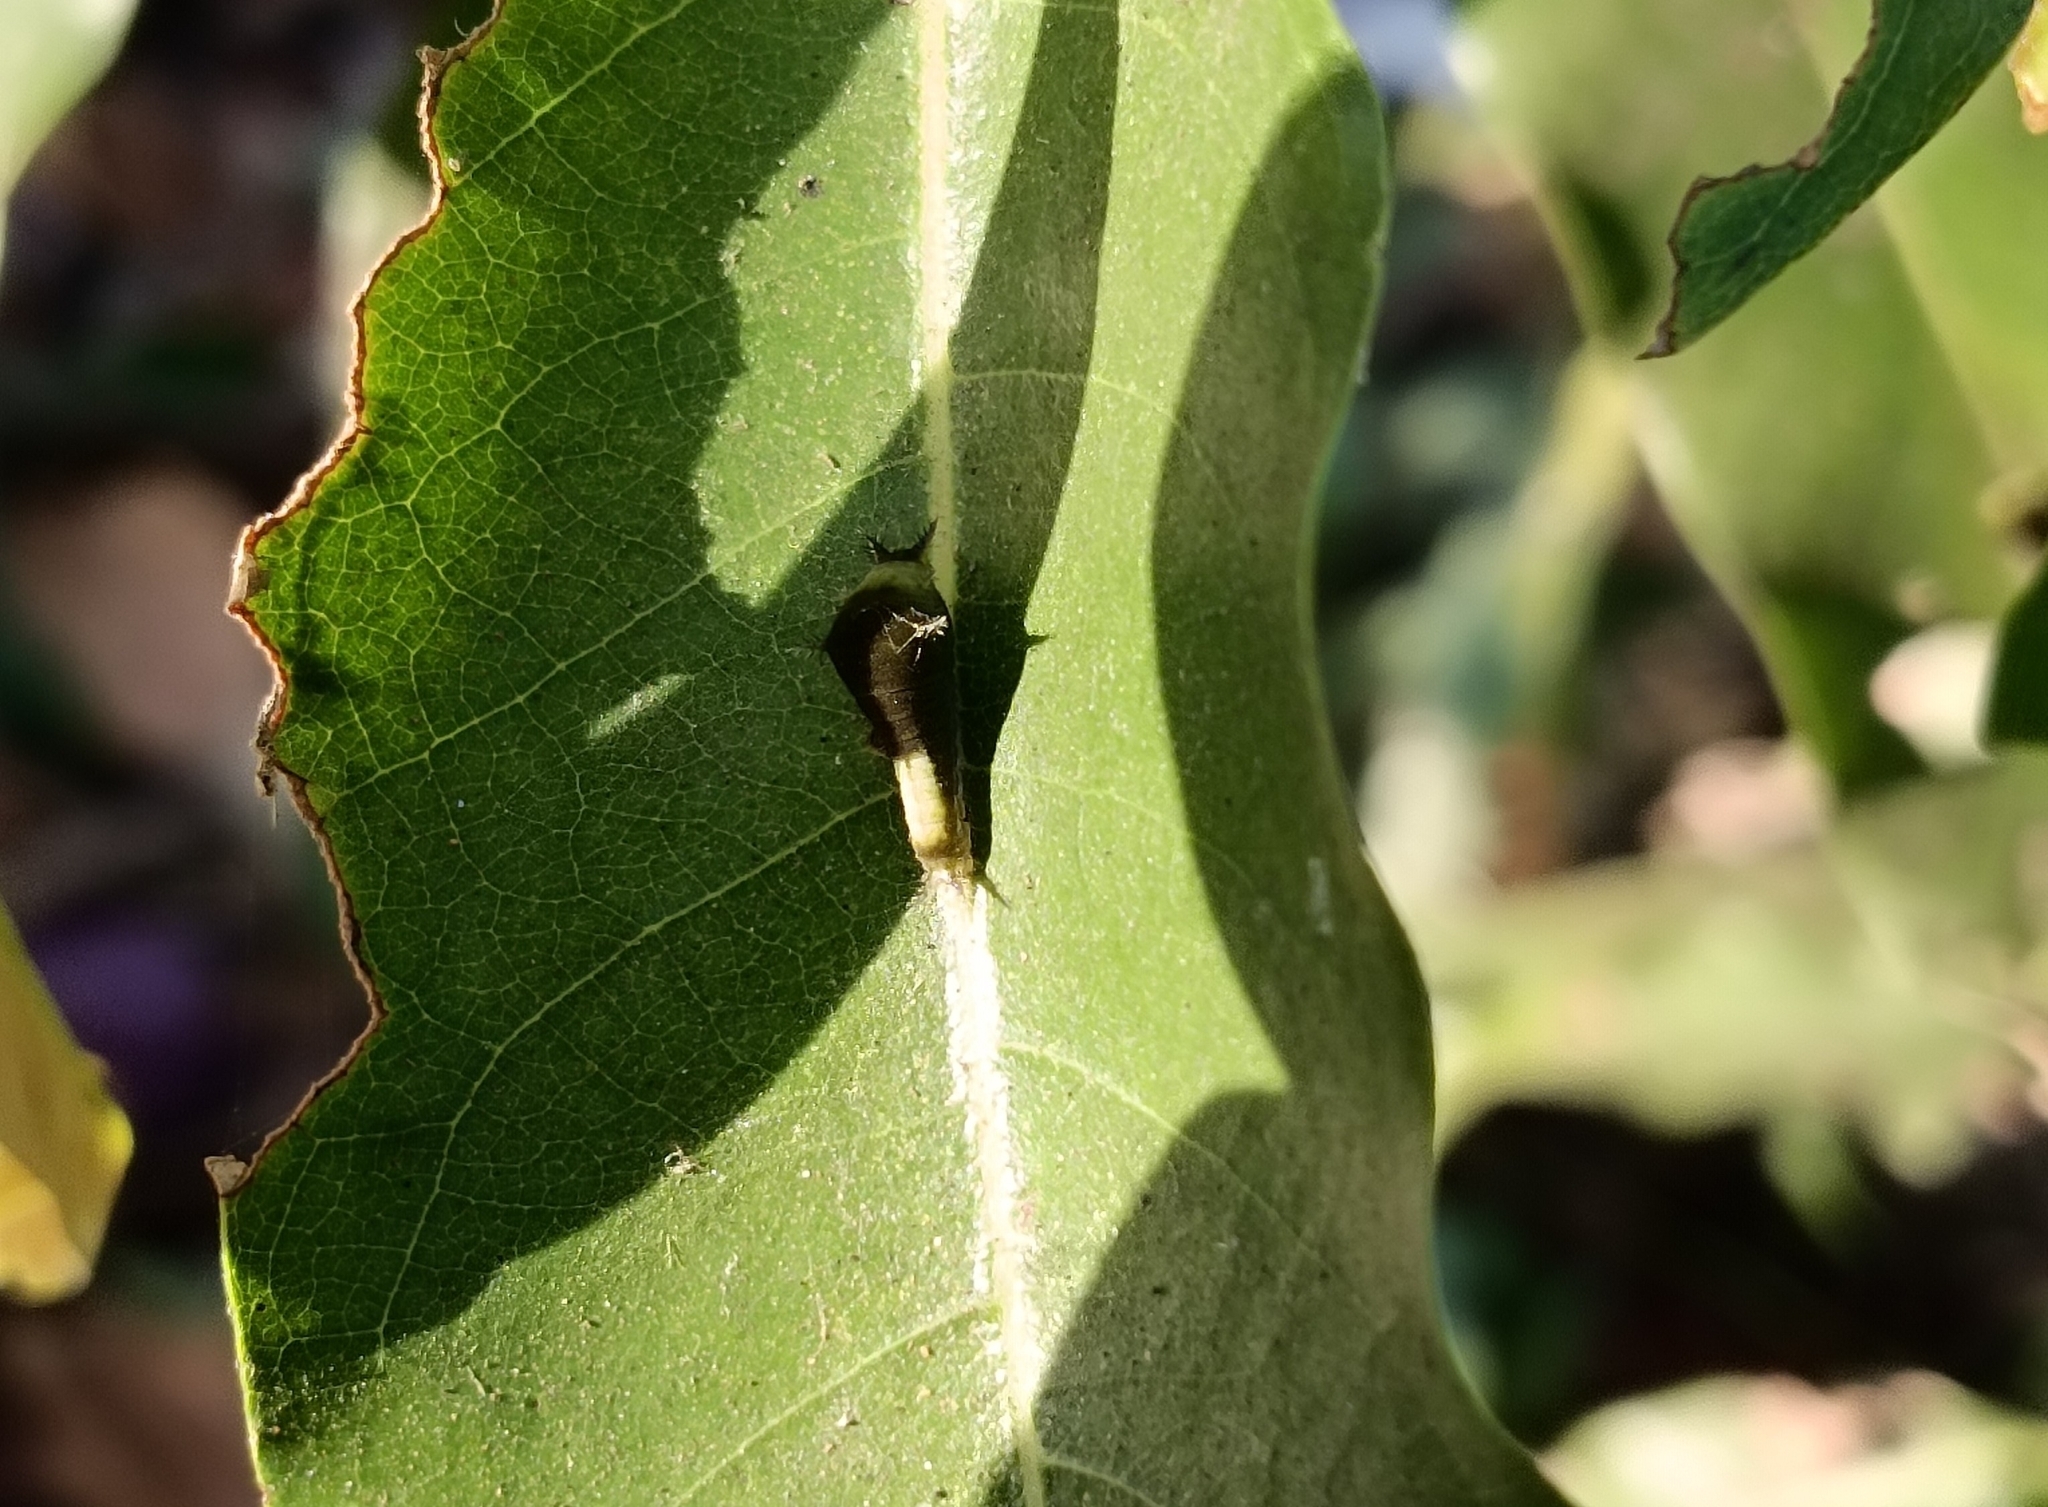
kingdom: Animalia
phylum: Arthropoda
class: Insecta
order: Lepidoptera
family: Papilionidae
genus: Graphium
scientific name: Graphium agamemnon
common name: Tailed jay
